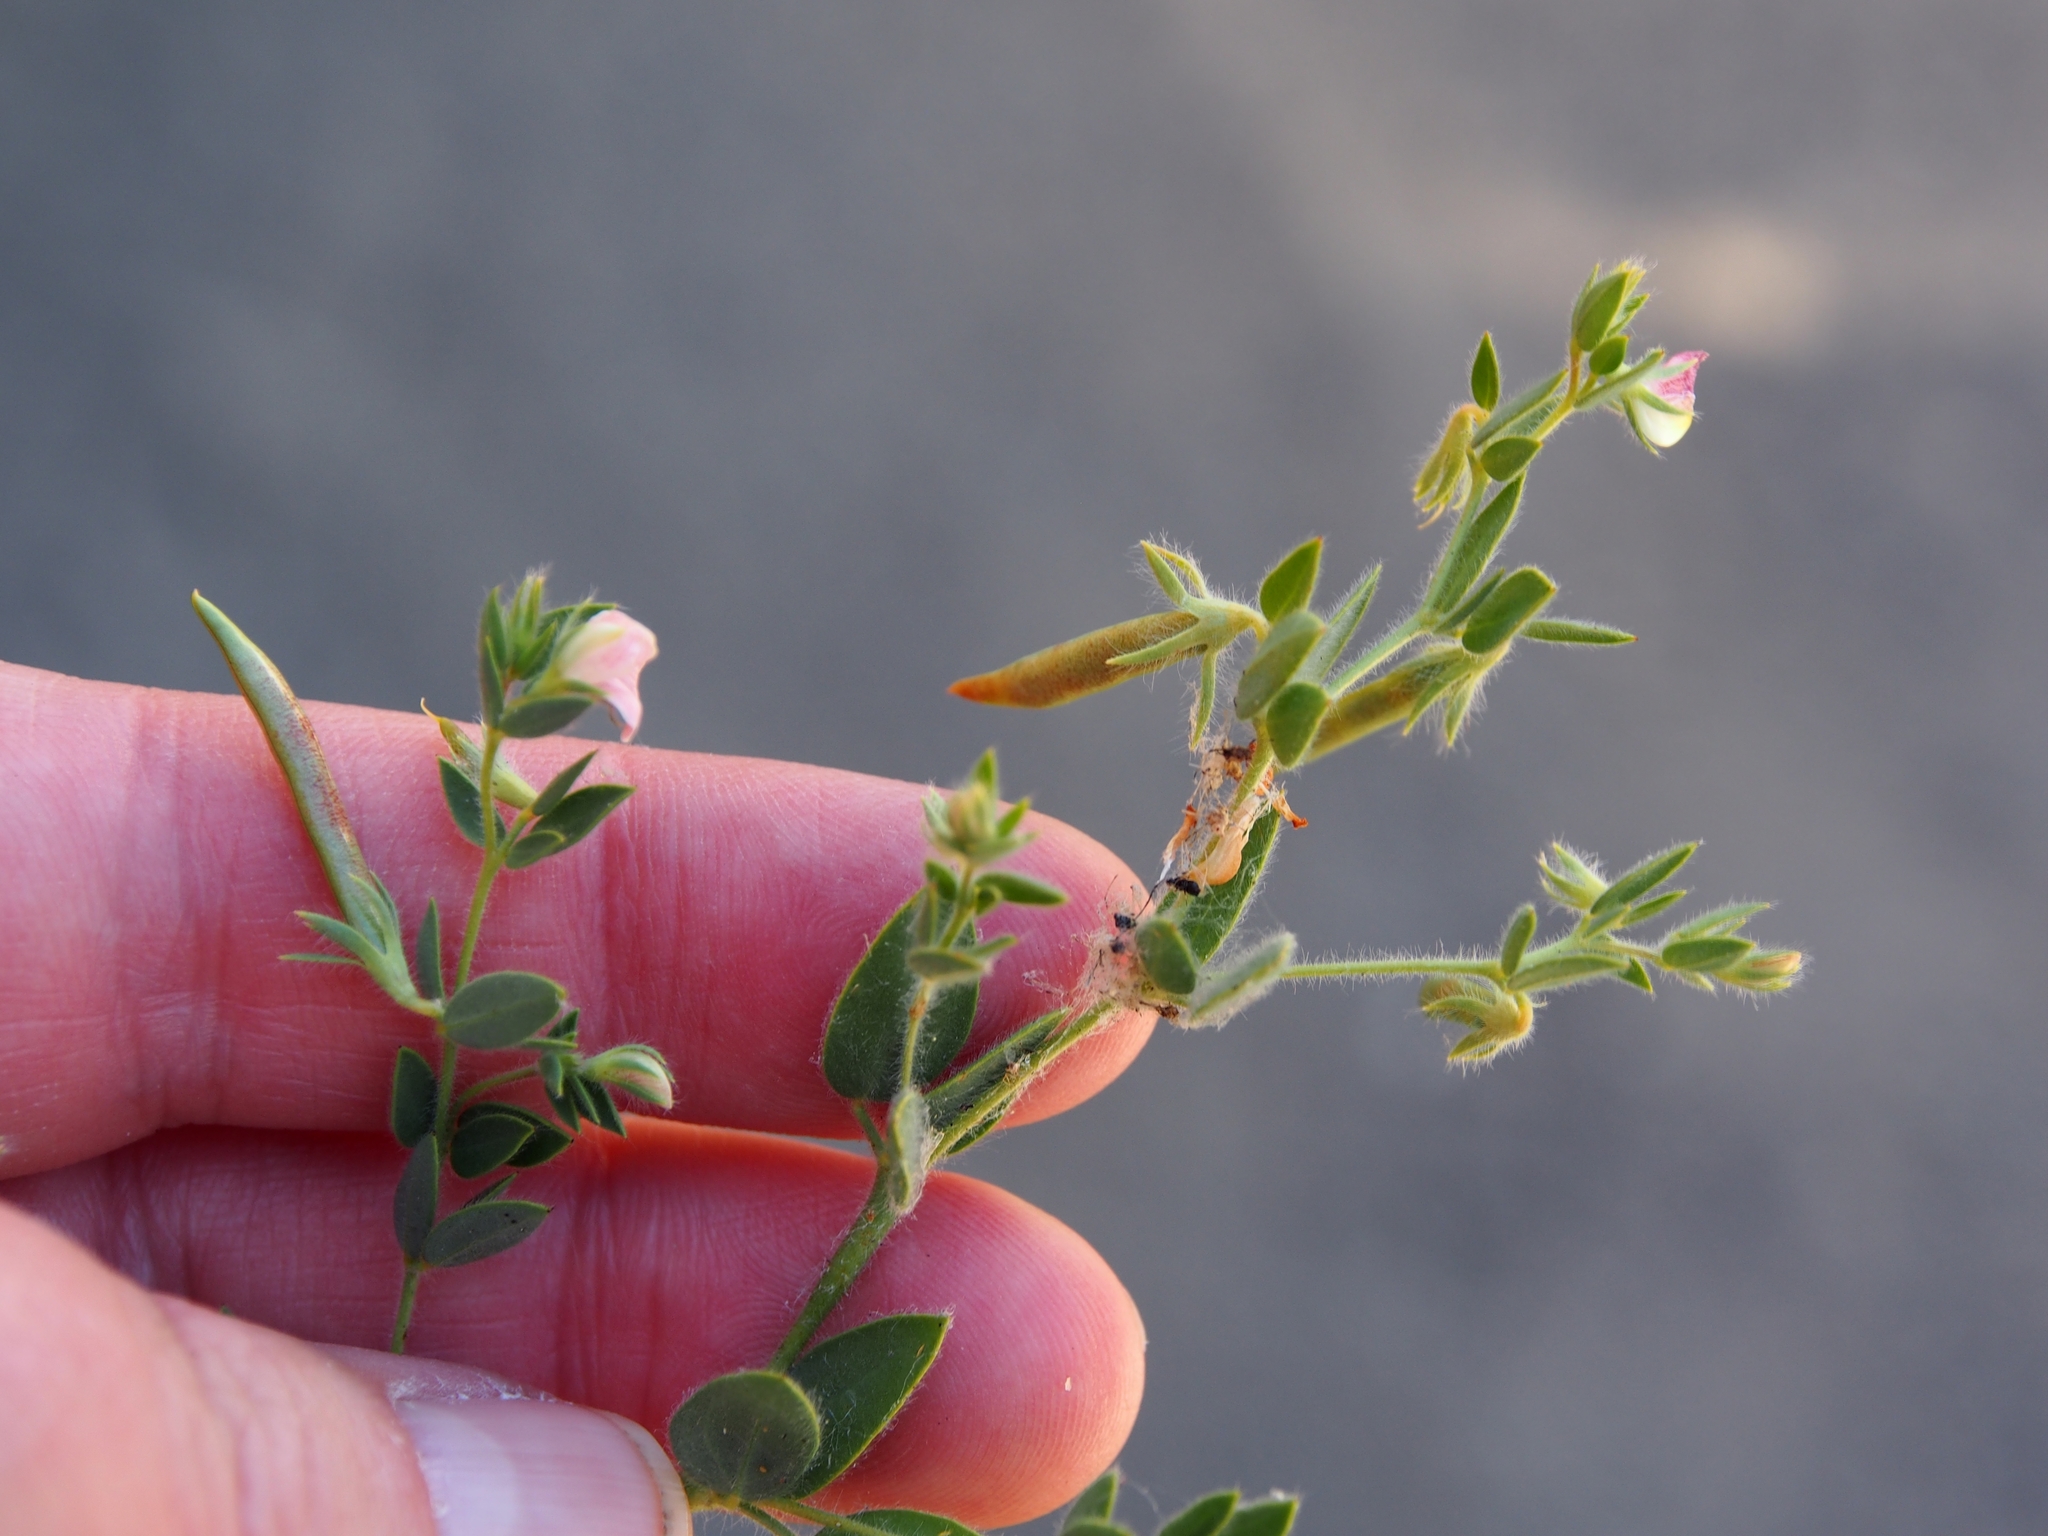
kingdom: Plantae
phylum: Tracheophyta
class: Magnoliopsida
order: Fabales
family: Fabaceae
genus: Acmispon
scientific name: Acmispon americanus
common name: American bird's-foot trefoil
